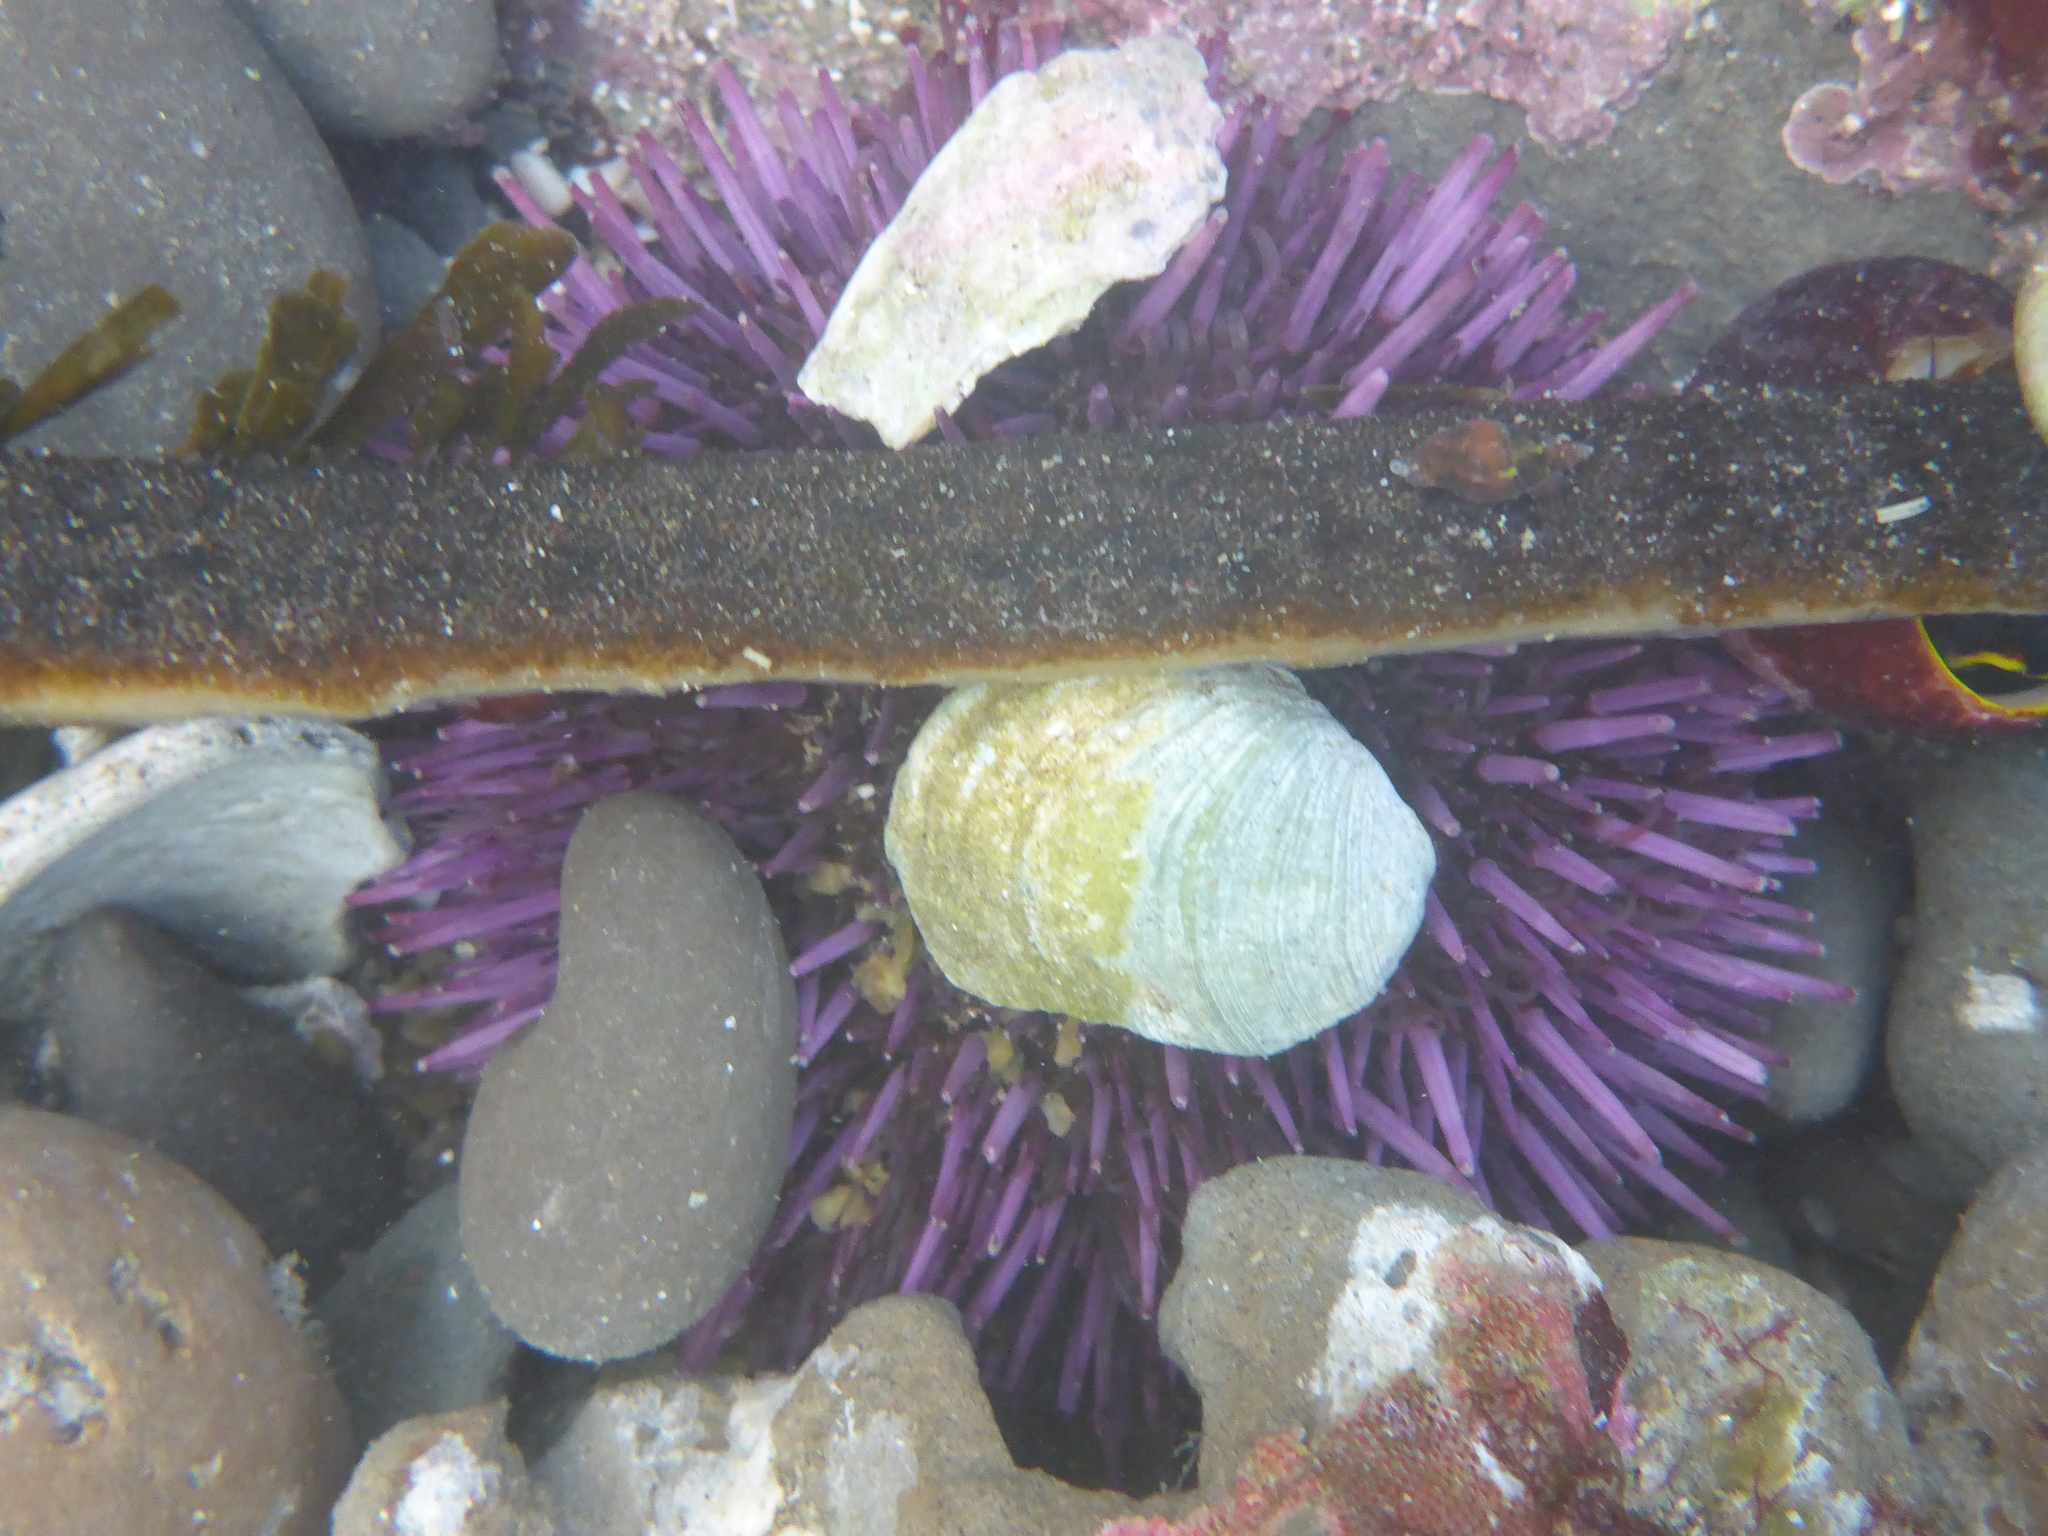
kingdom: Animalia
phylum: Echinodermata
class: Echinoidea
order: Camarodonta
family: Strongylocentrotidae
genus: Strongylocentrotus
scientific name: Strongylocentrotus purpuratus
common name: Purple sea urchin
